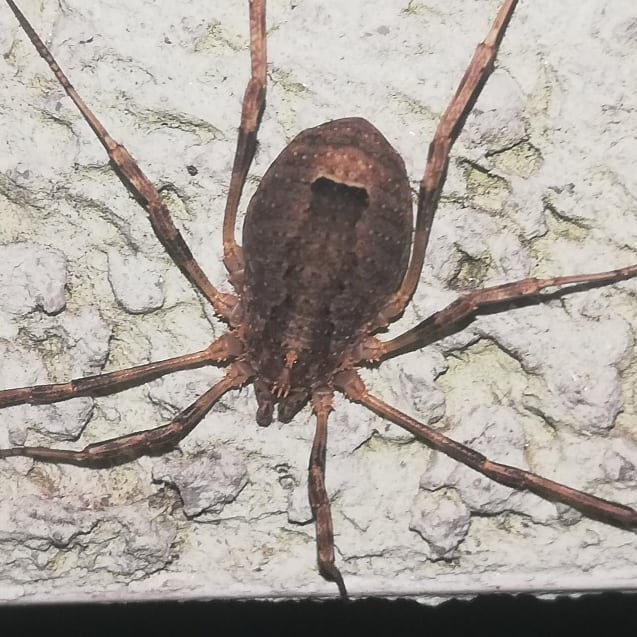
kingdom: Animalia
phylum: Arthropoda
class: Arachnida
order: Opiliones
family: Phalangiidae
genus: Odiellus
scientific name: Odiellus spinosus
